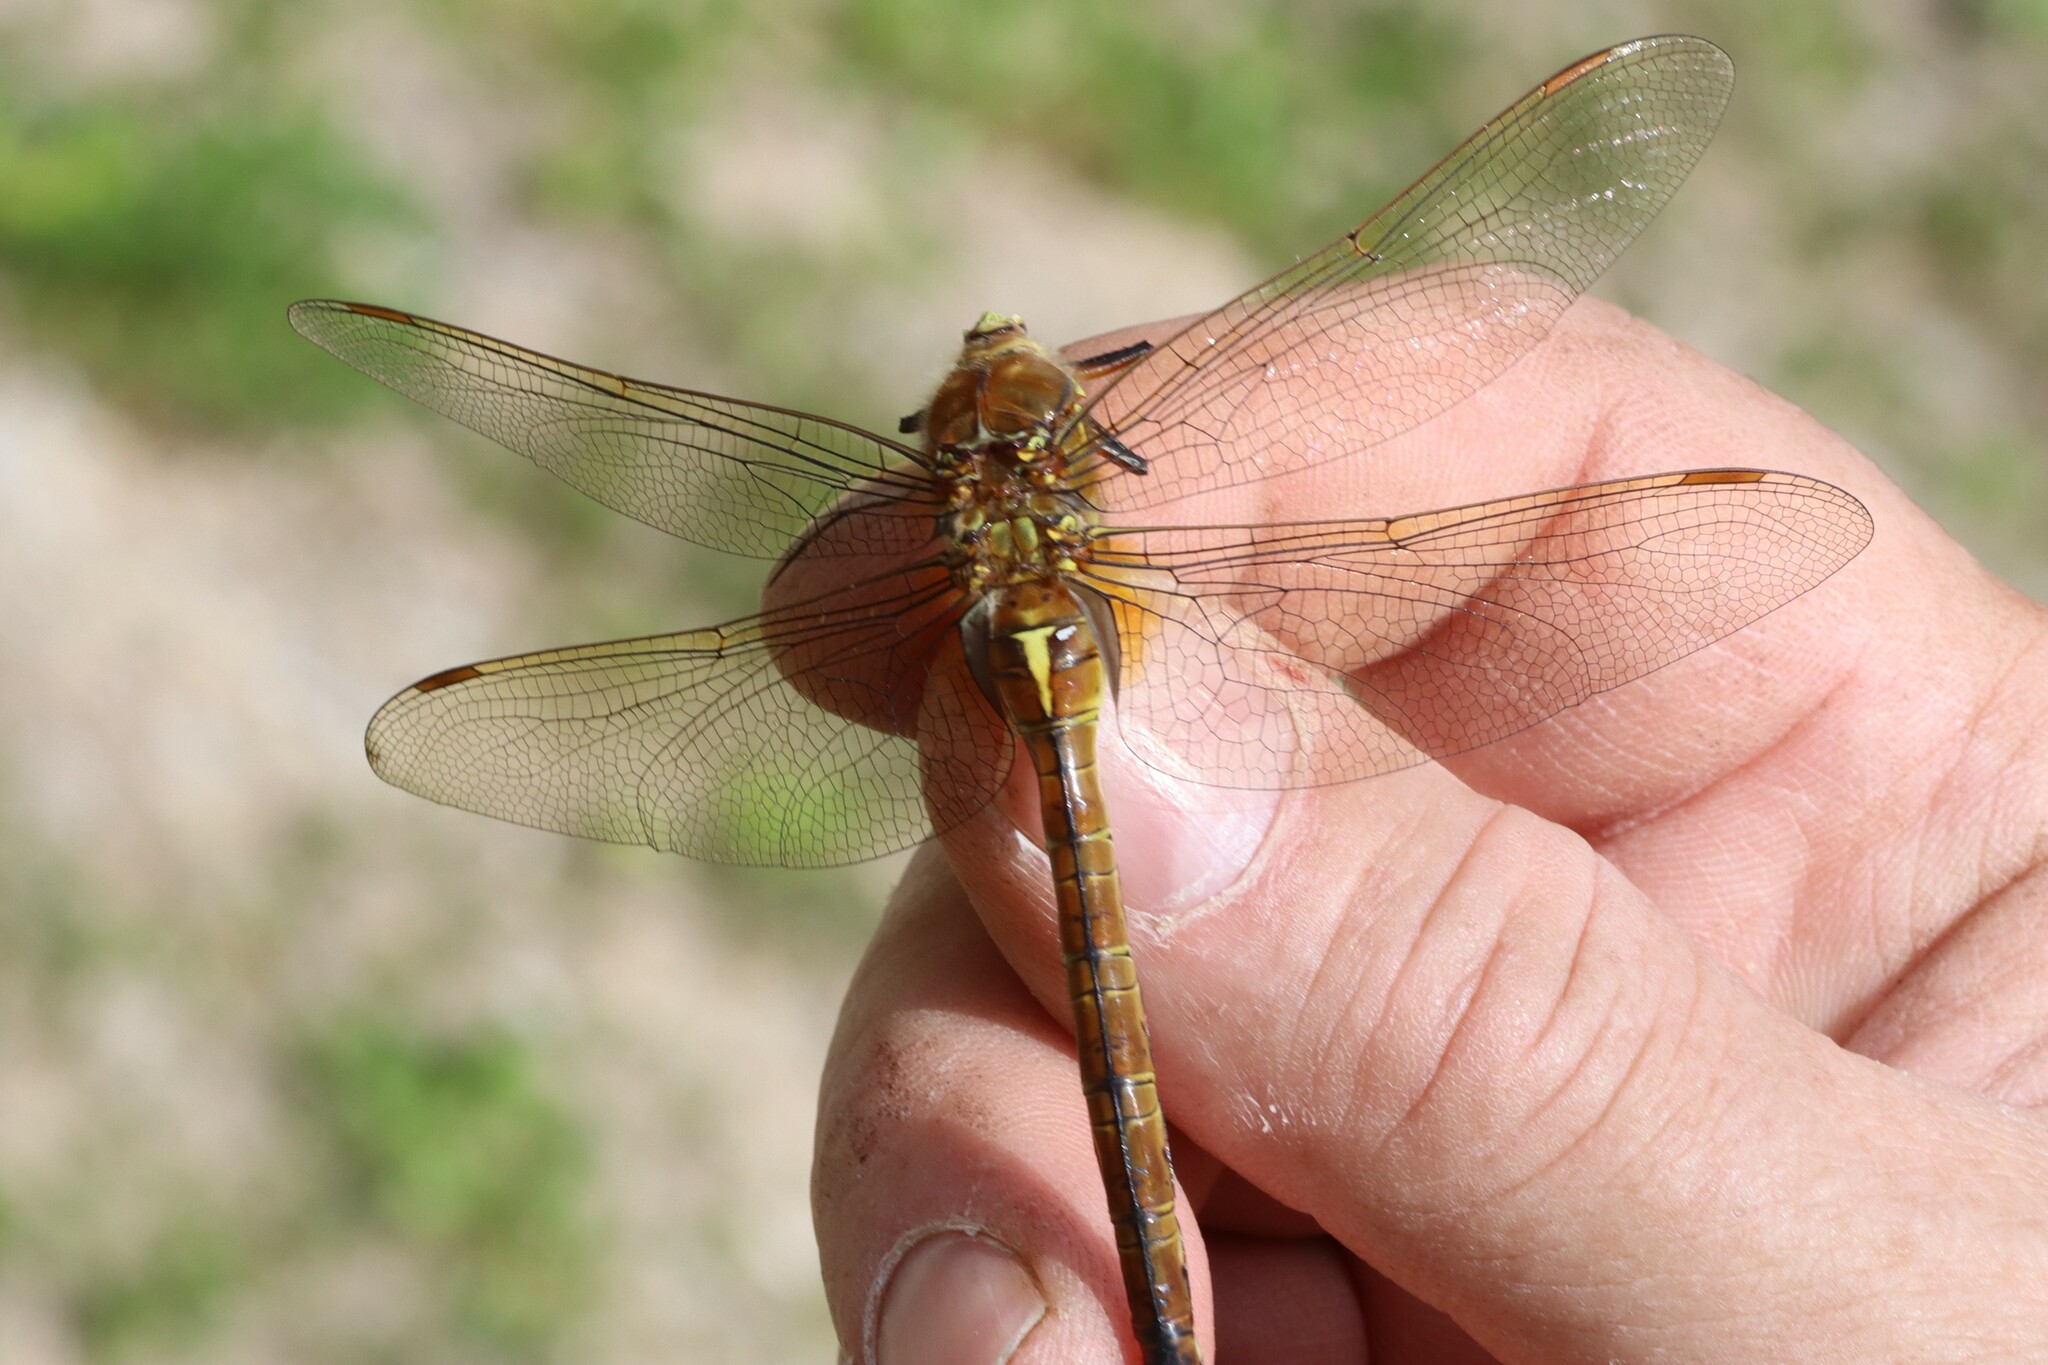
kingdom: Animalia
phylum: Arthropoda
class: Insecta
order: Odonata
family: Aeshnidae
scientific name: Aeshnidae
